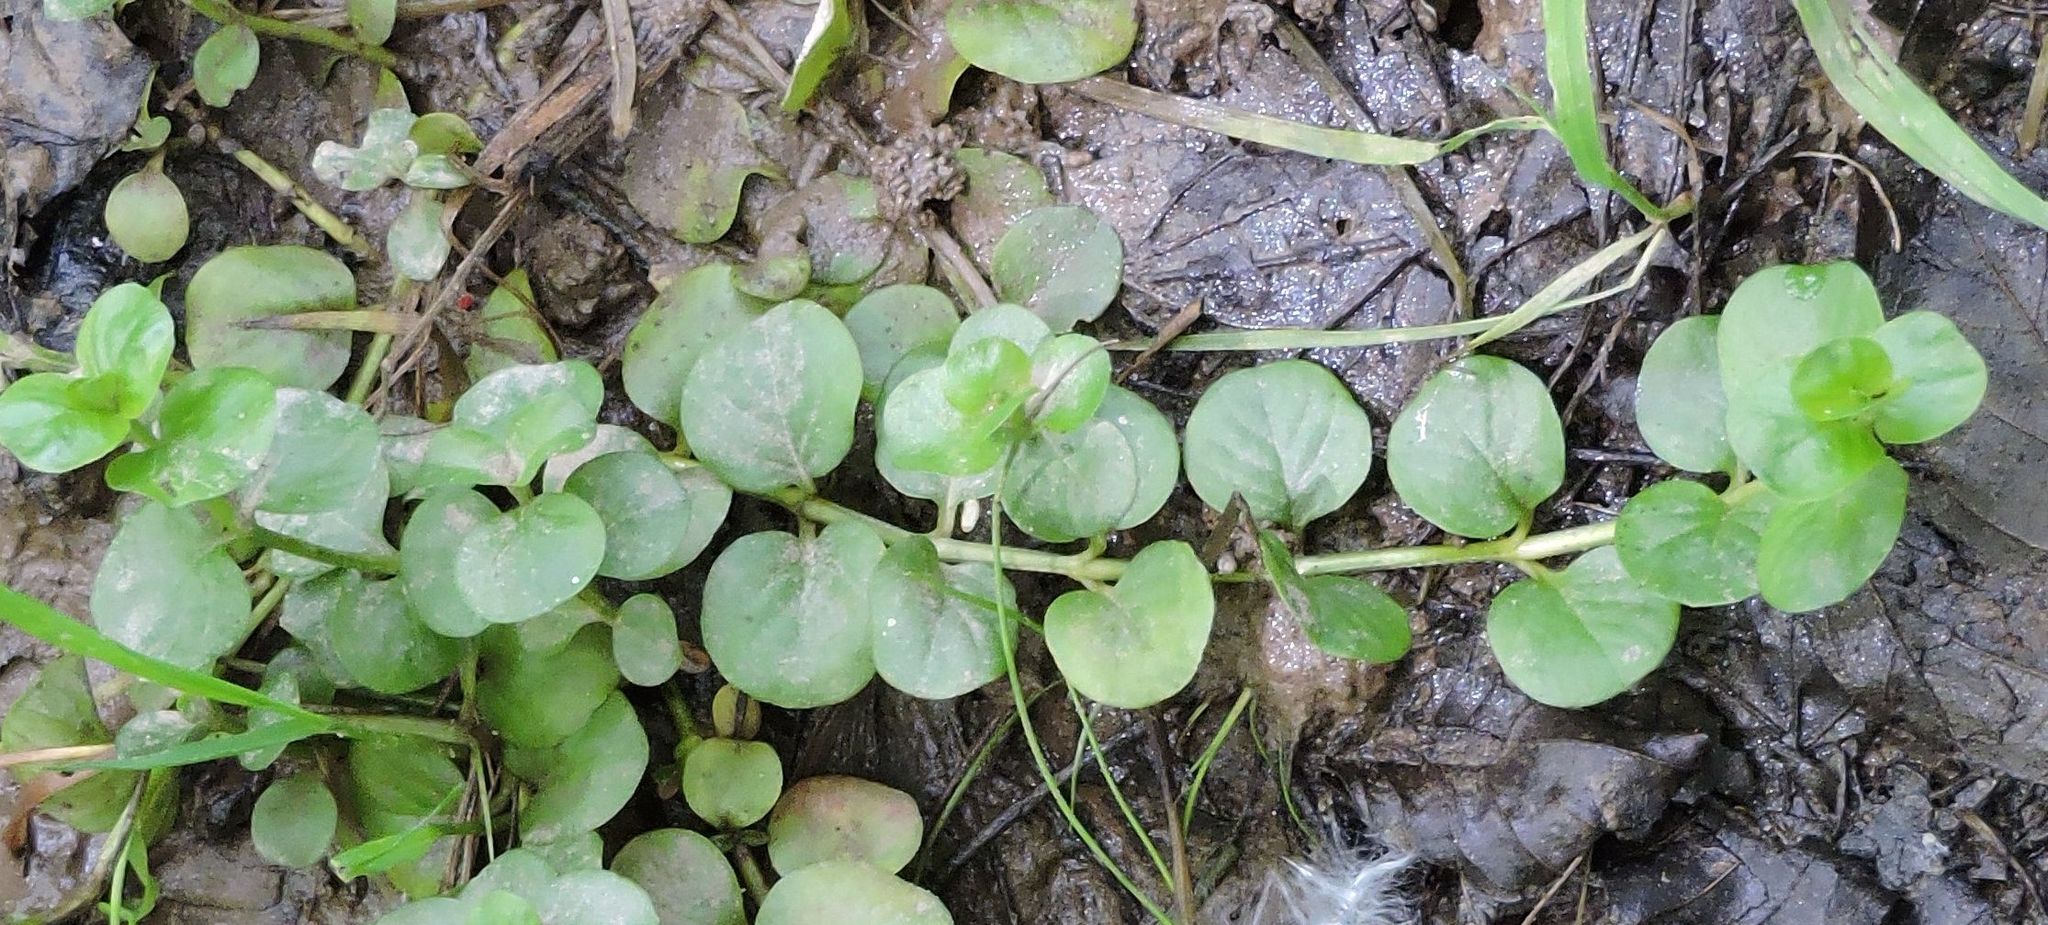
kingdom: Plantae
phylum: Tracheophyta
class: Magnoliopsida
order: Ericales
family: Primulaceae
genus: Lysimachia
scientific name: Lysimachia nummularia
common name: Moneywort
